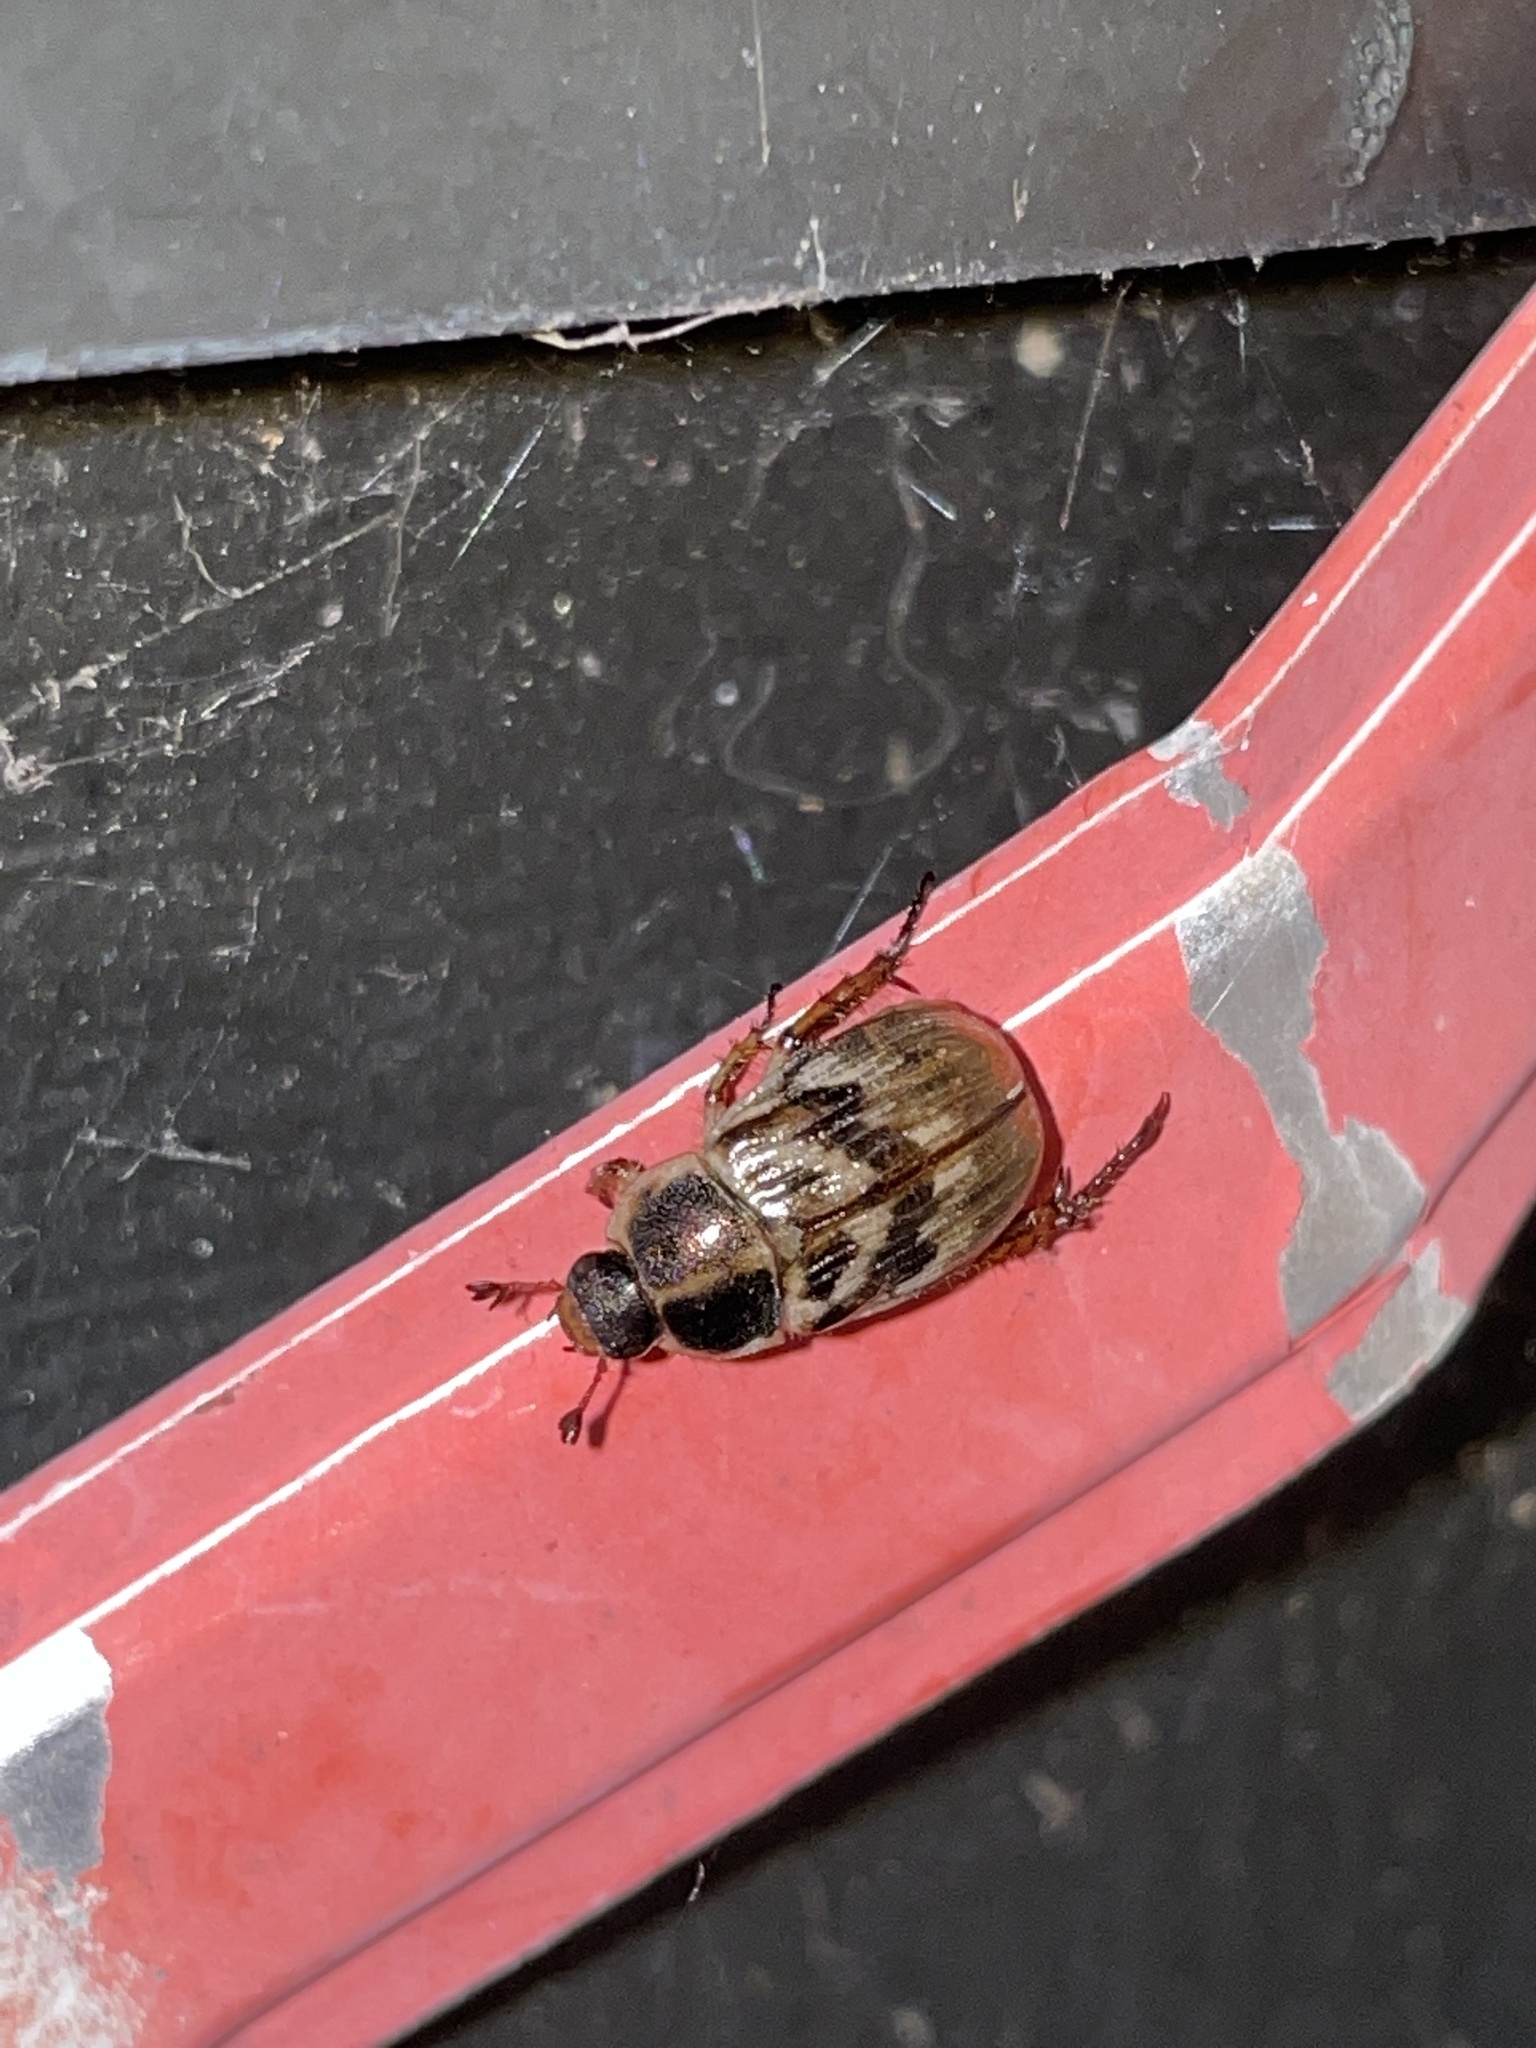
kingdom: Animalia
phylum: Arthropoda
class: Insecta
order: Coleoptera
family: Scarabaeidae
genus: Exomala
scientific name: Exomala orientalis
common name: Oriental beetle
